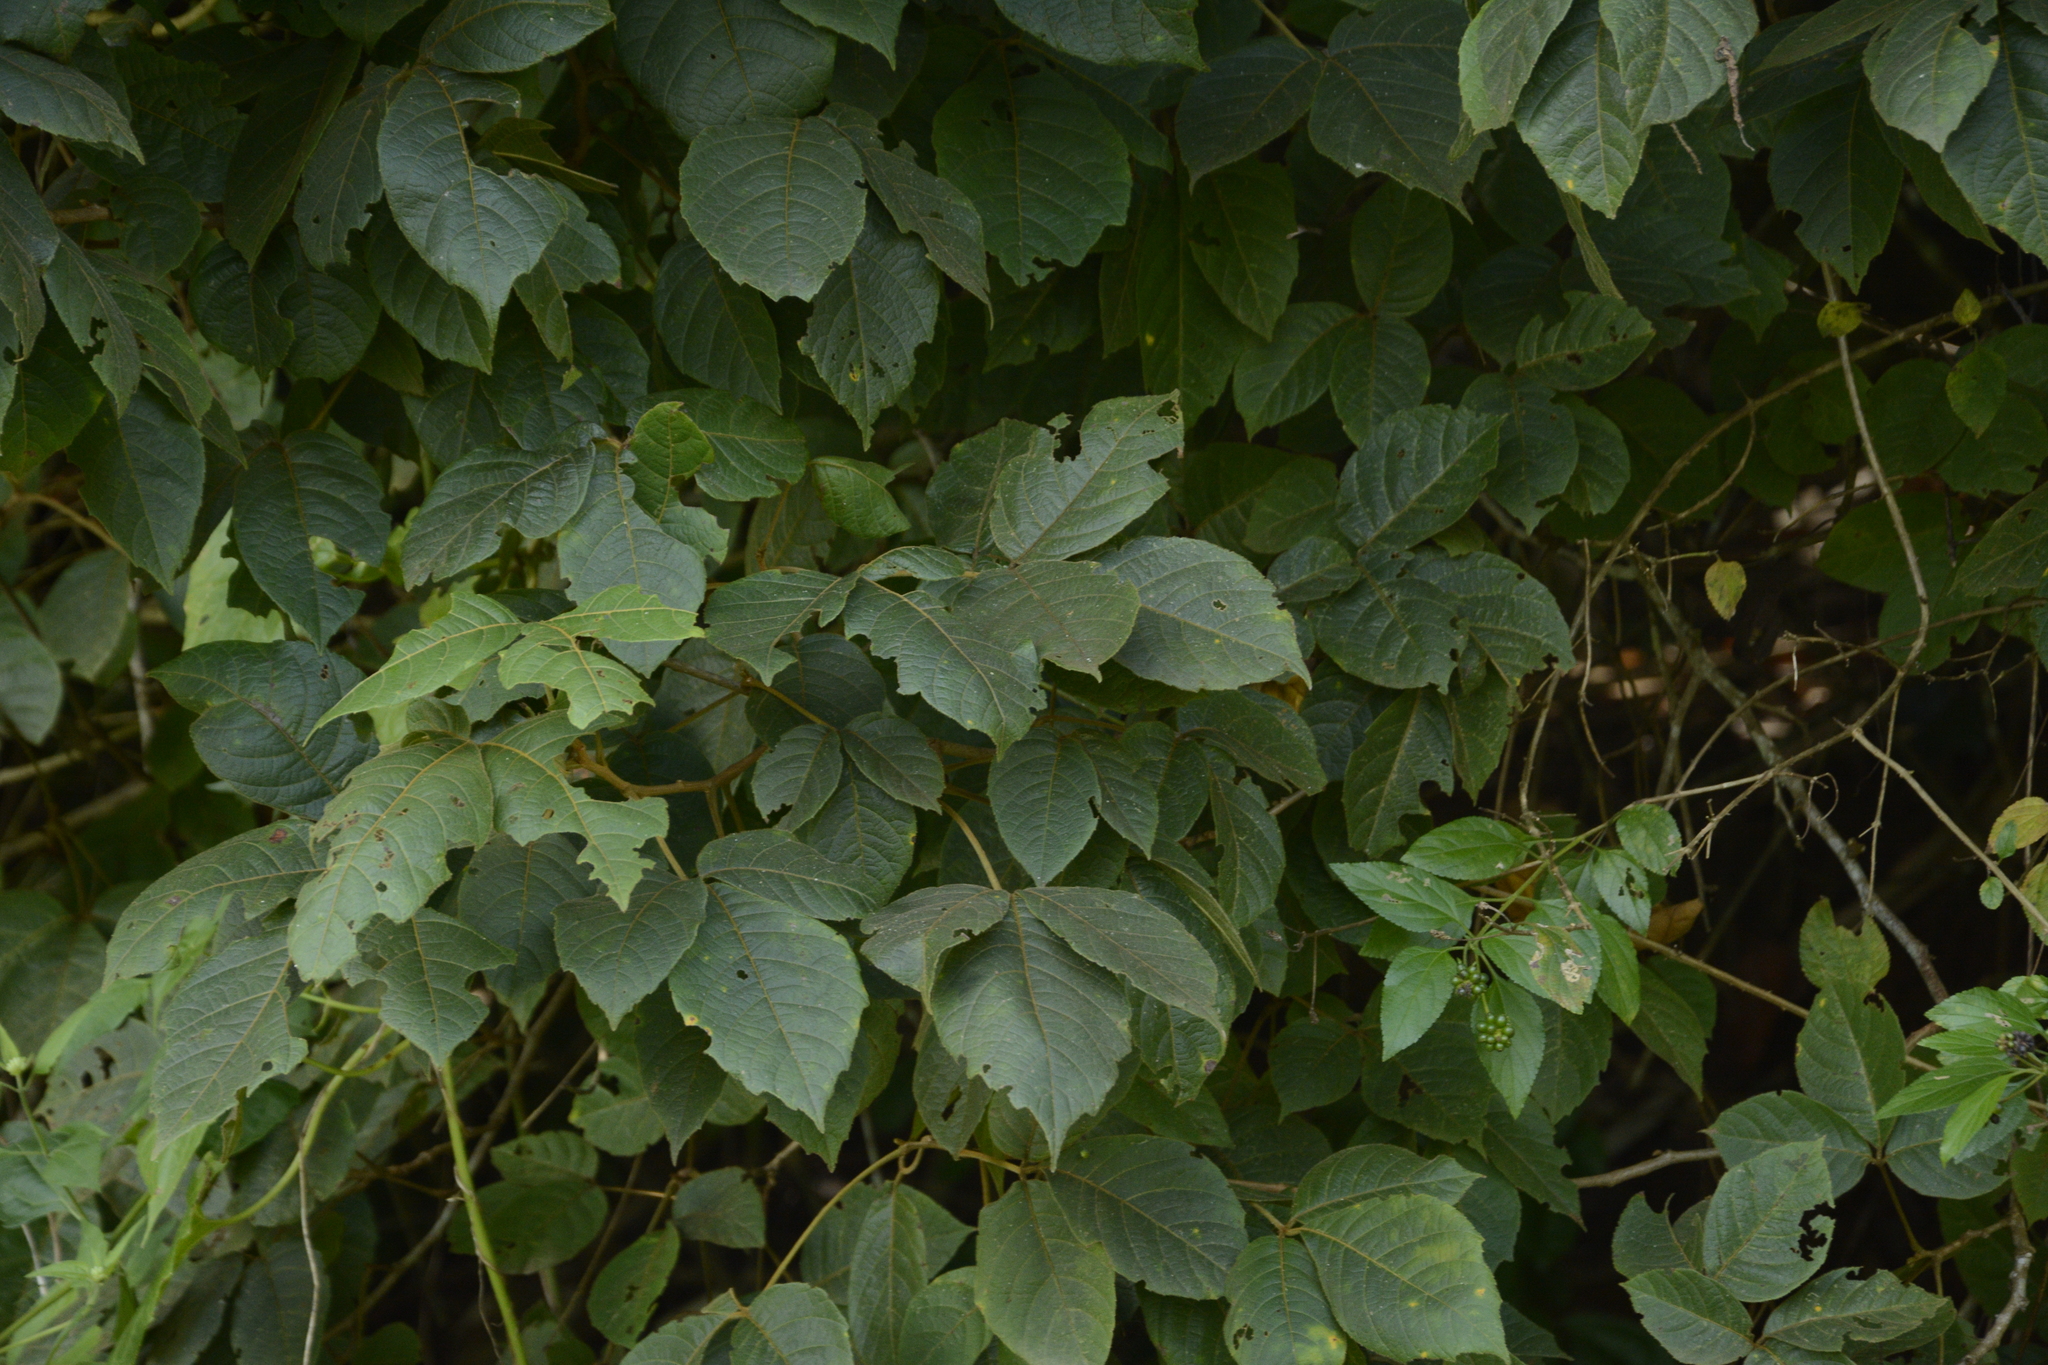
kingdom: Plantae
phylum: Tracheophyta
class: Magnoliopsida
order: Sapindales
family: Sapindaceae
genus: Allophylus
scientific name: Allophylus cobbe
